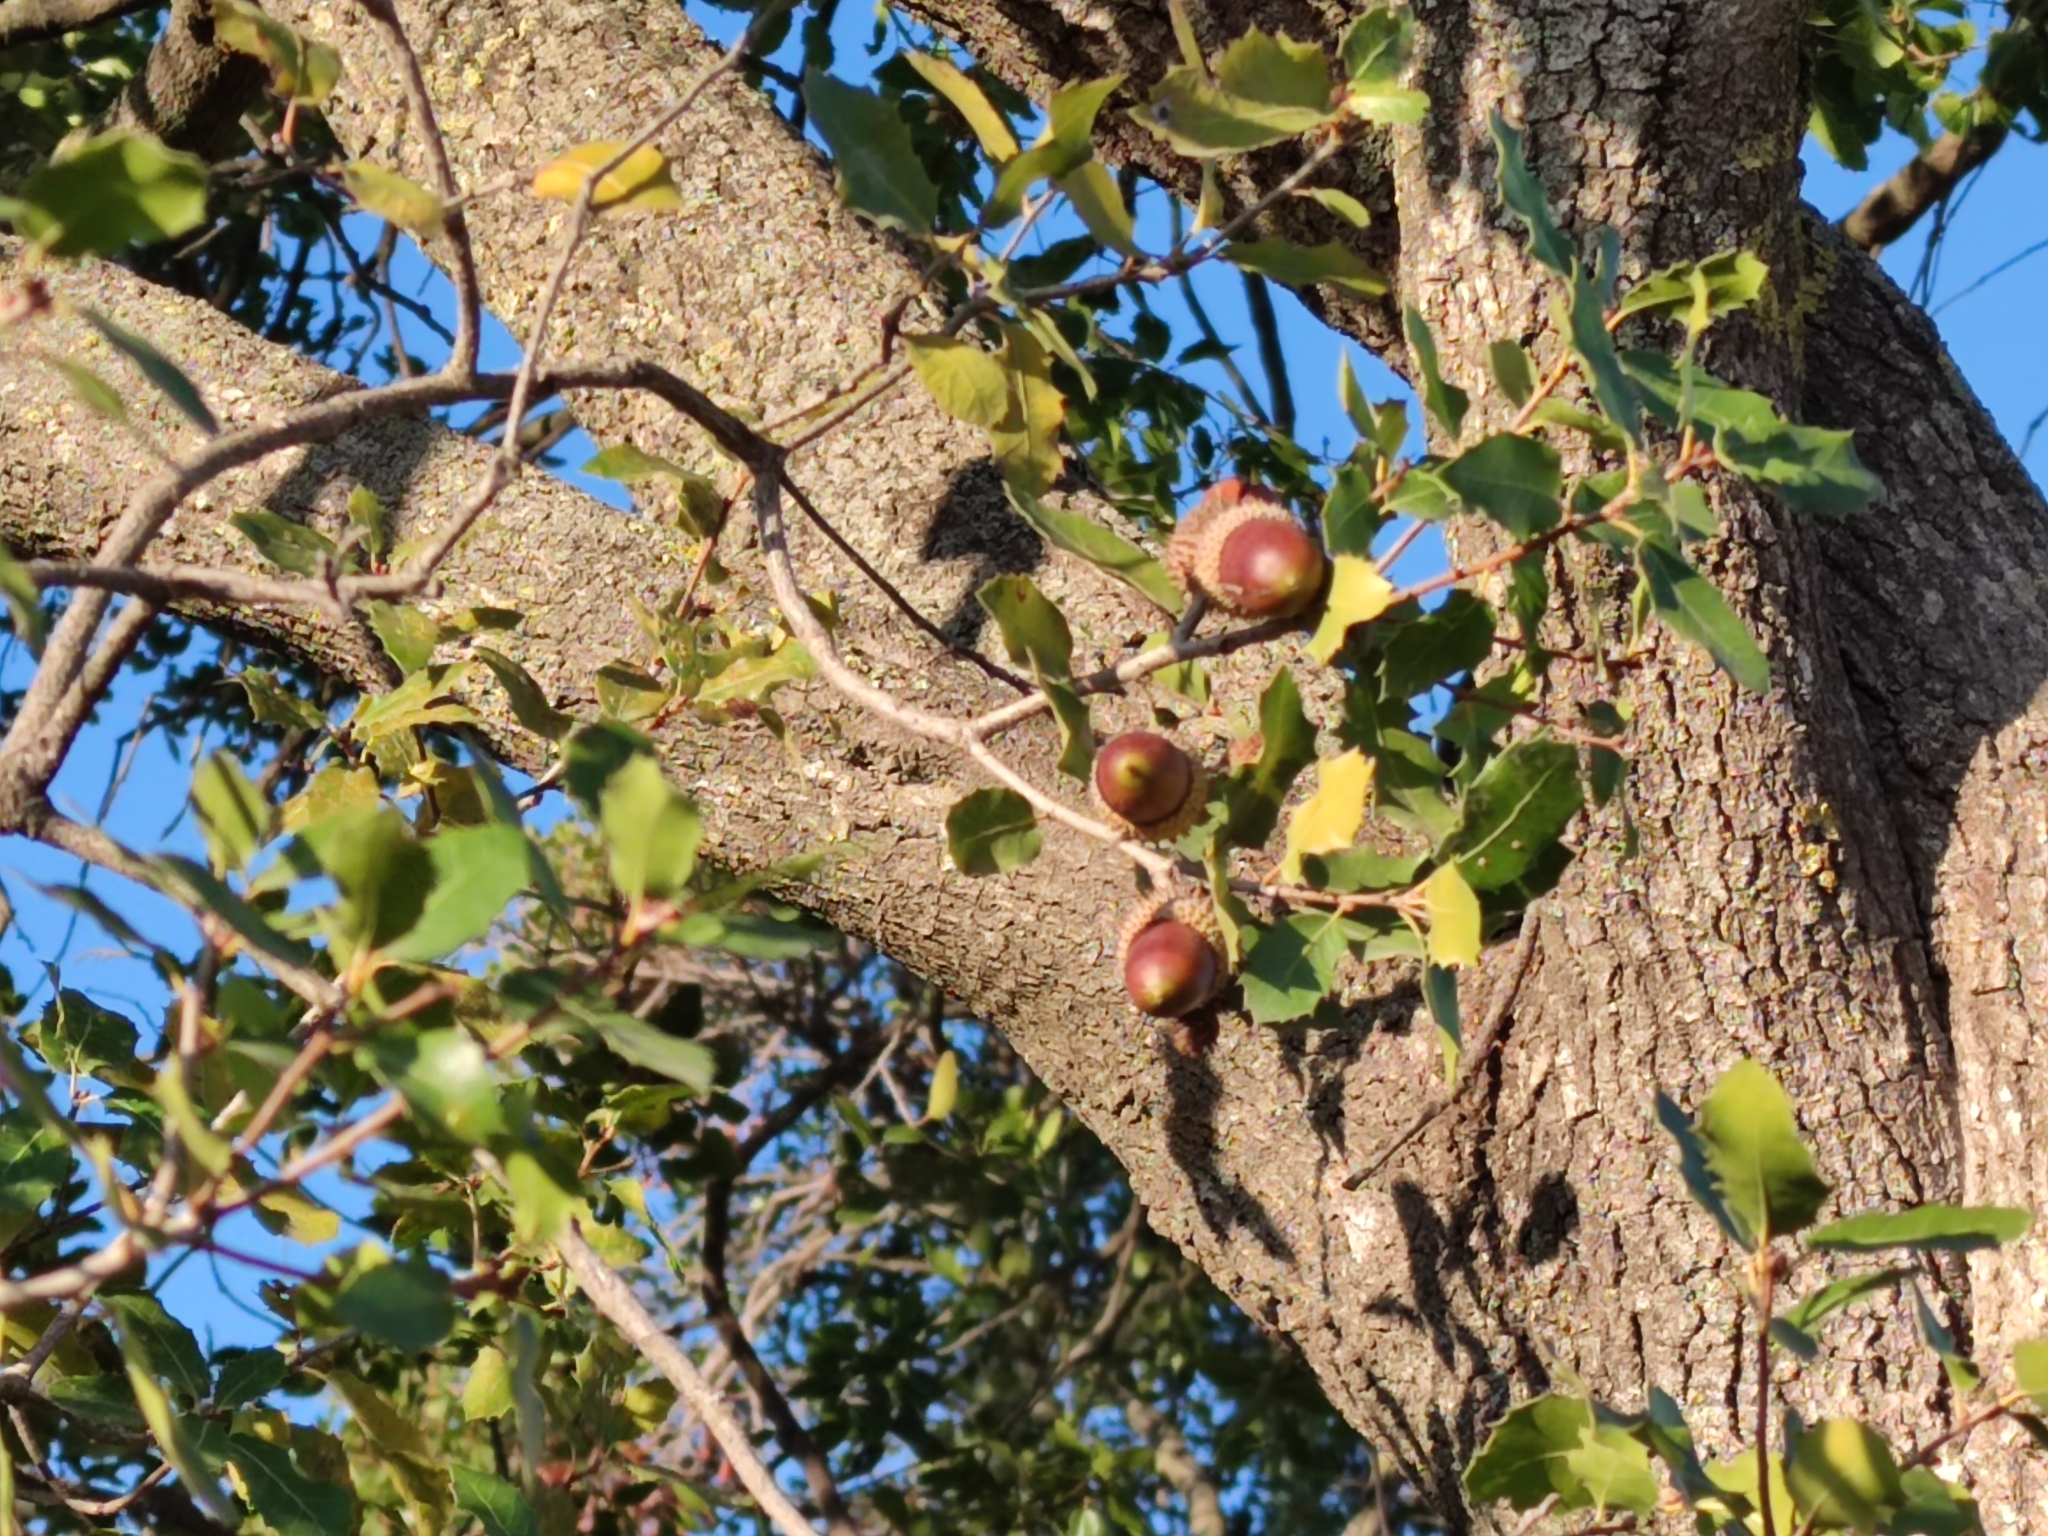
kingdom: Plantae
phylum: Tracheophyta
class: Magnoliopsida
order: Fagales
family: Fagaceae
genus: Quercus
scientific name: Quercus coccifera
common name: Kermes oak
